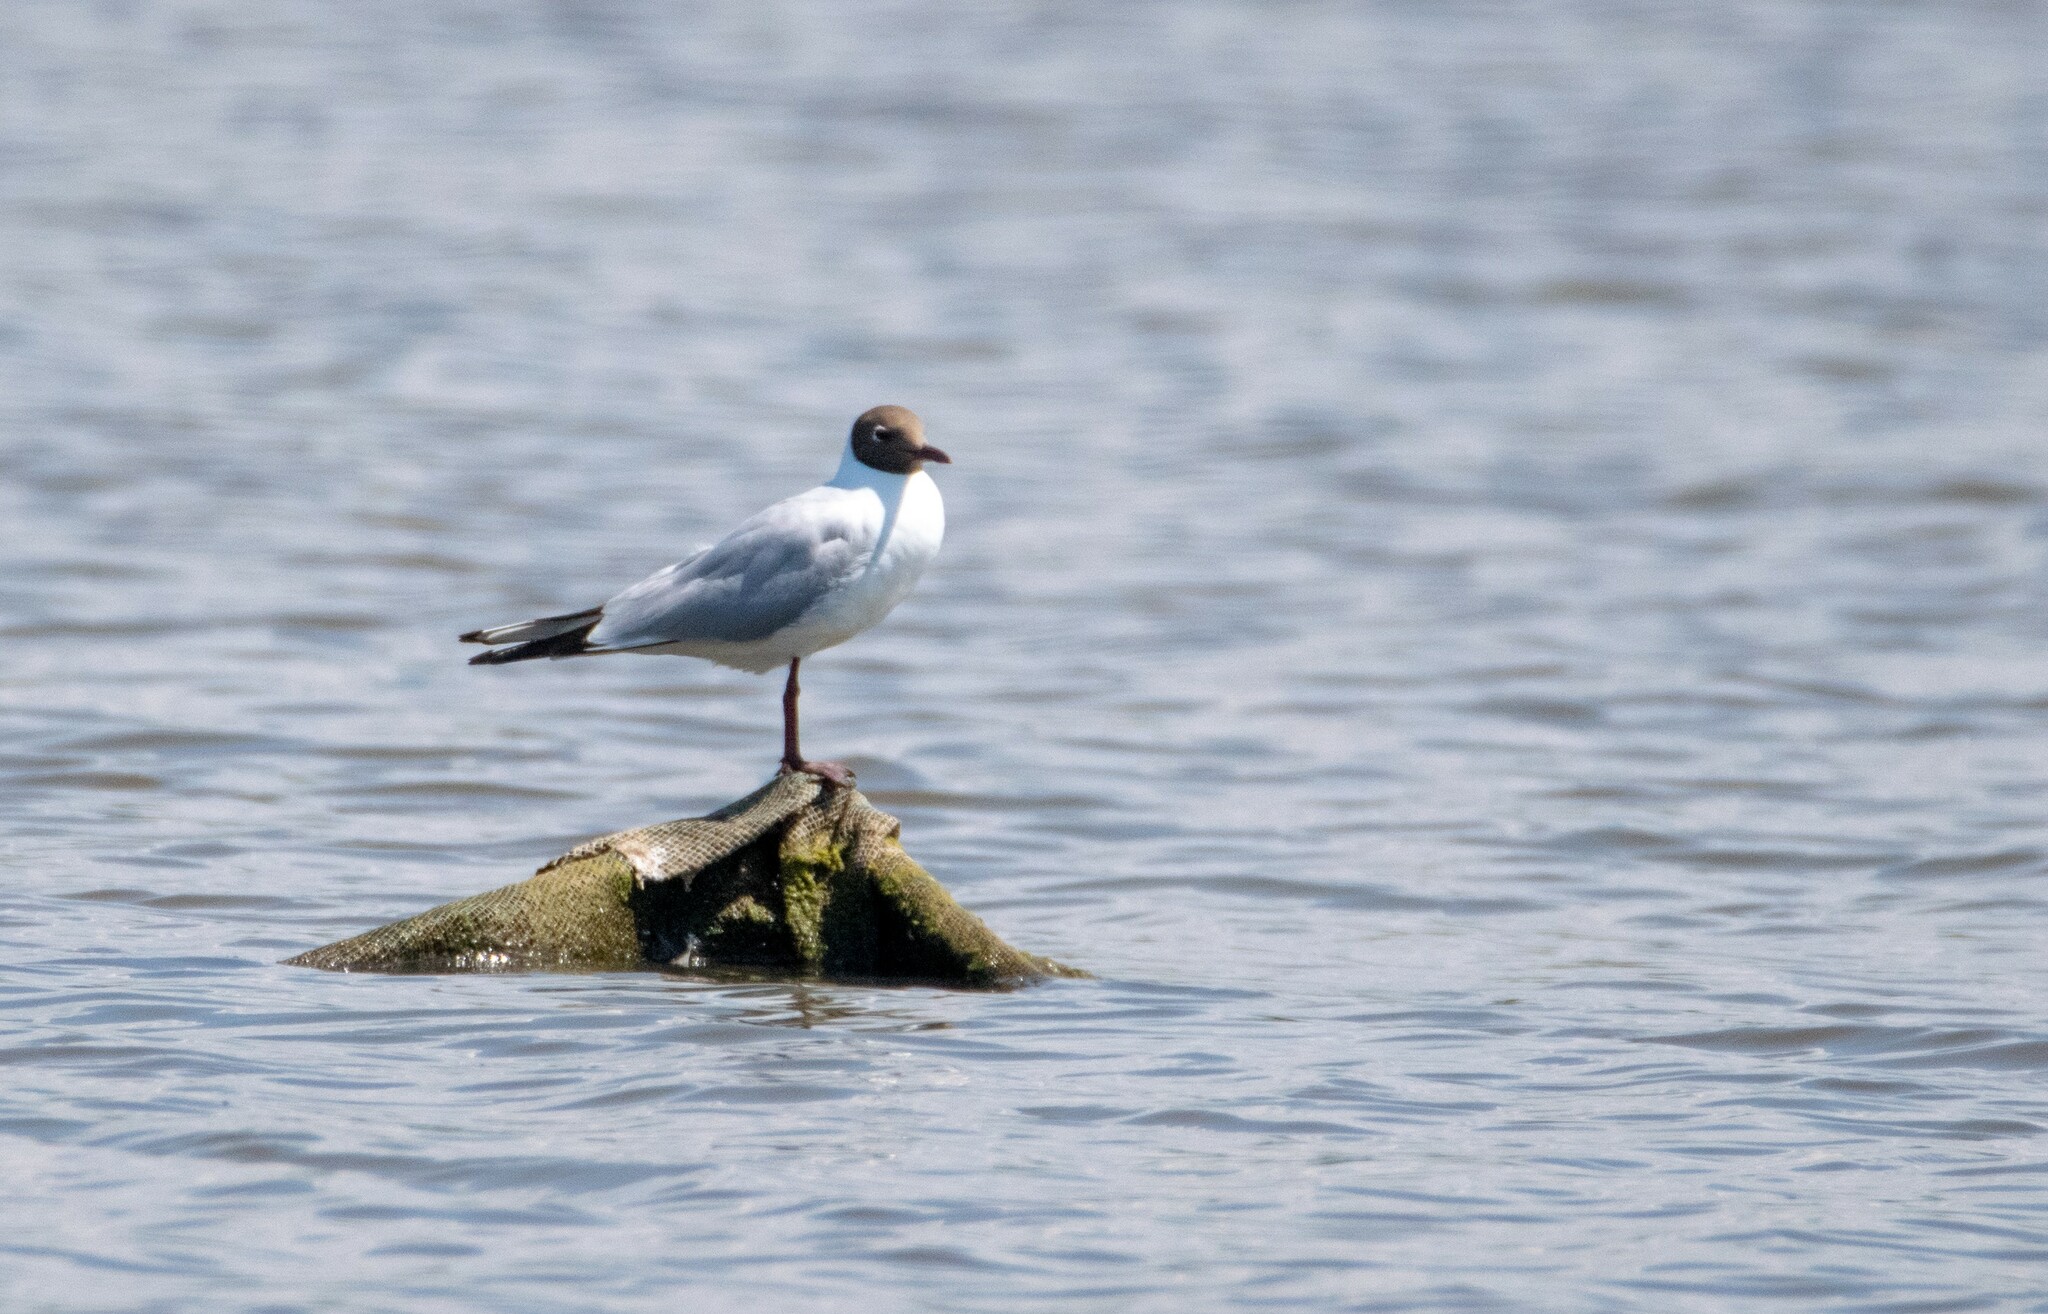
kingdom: Animalia
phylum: Chordata
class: Aves
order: Charadriiformes
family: Laridae
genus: Chroicocephalus
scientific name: Chroicocephalus ridibundus
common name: Black-headed gull
